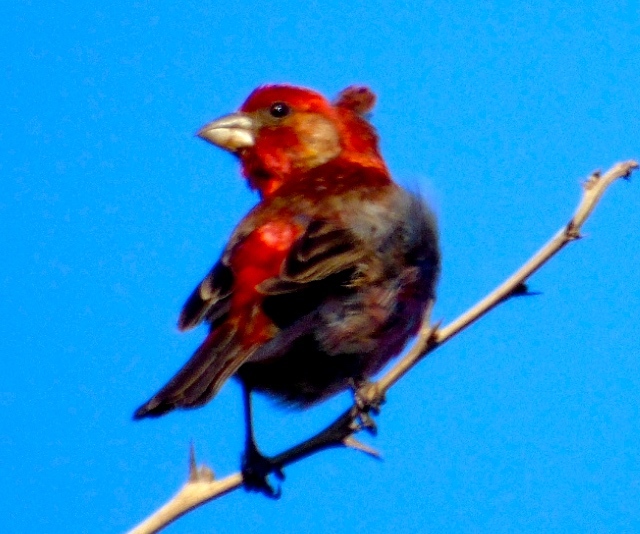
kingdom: Animalia
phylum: Chordata
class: Aves
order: Passeriformes
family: Fringillidae
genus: Haemorhous
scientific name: Haemorhous mexicanus
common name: House finch
